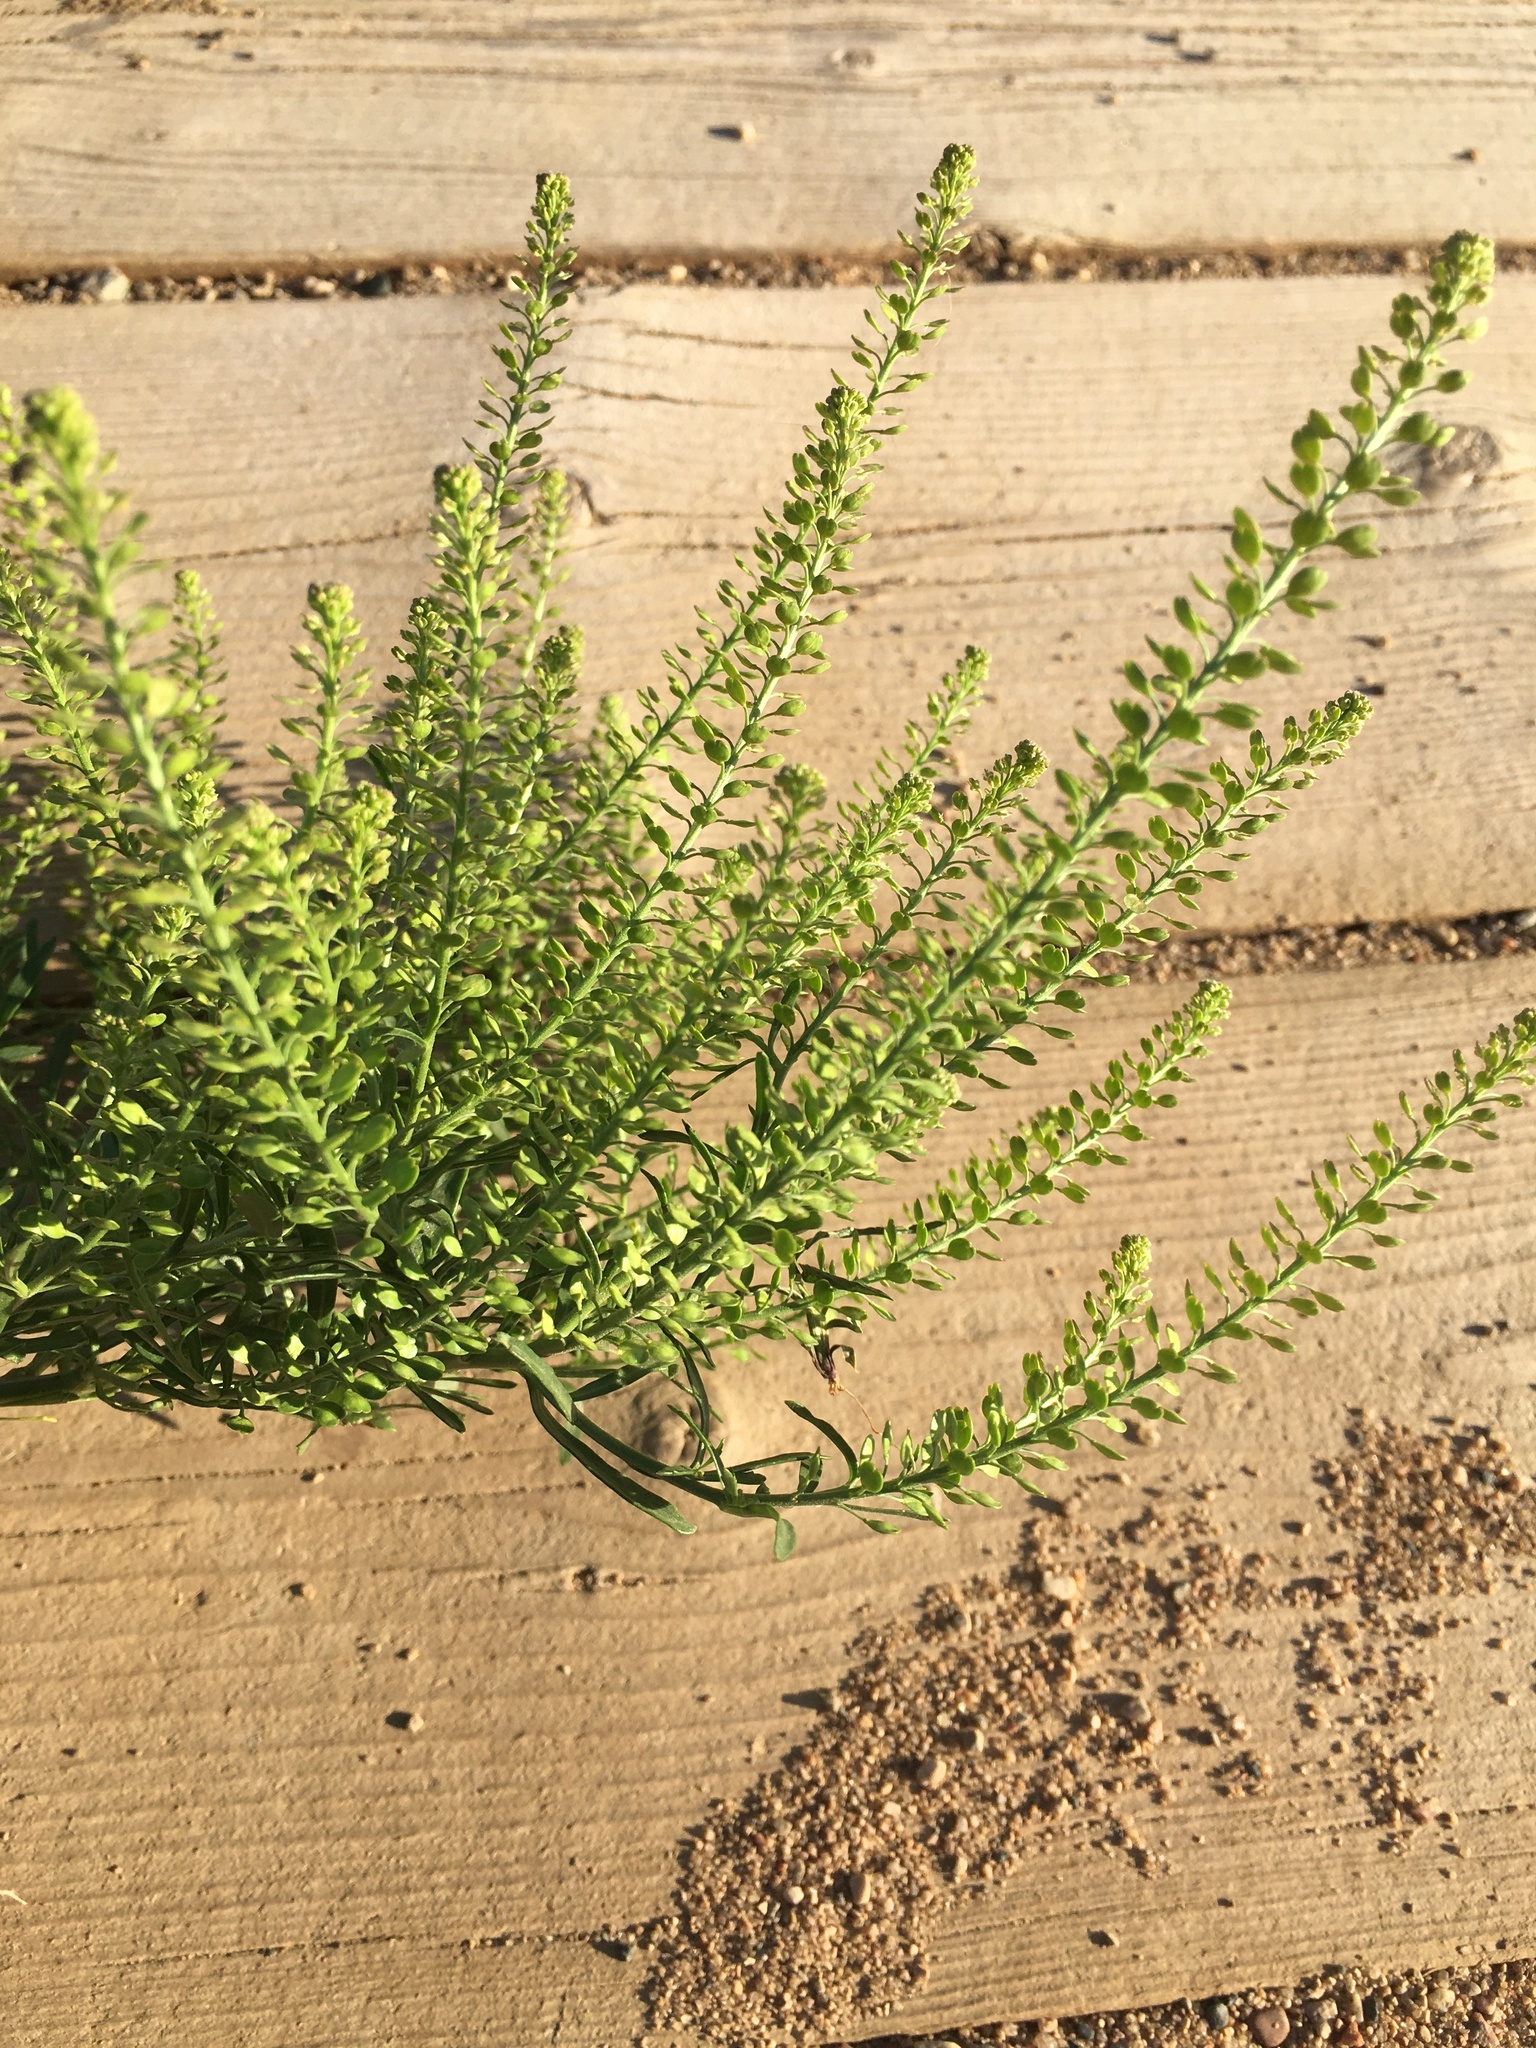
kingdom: Plantae
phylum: Tracheophyta
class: Magnoliopsida
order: Brassicales
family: Brassicaceae
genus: Lepidium
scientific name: Lepidium densiflorum
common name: Miner's pepperwort
